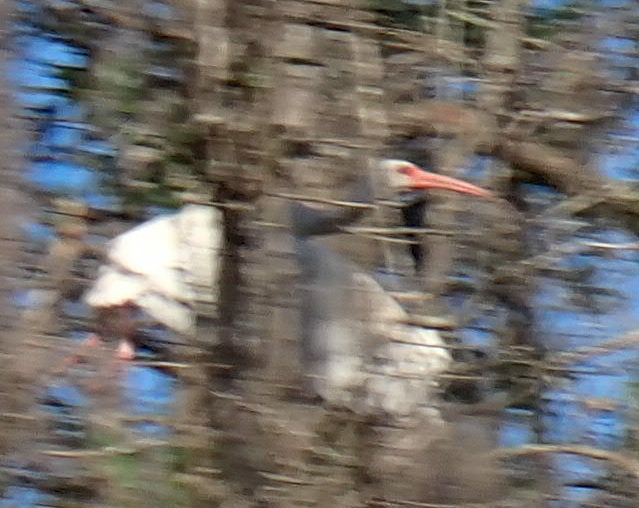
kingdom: Animalia
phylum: Chordata
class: Aves
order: Pelecaniformes
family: Threskiornithidae
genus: Eudocimus
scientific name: Eudocimus albus
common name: White ibis
